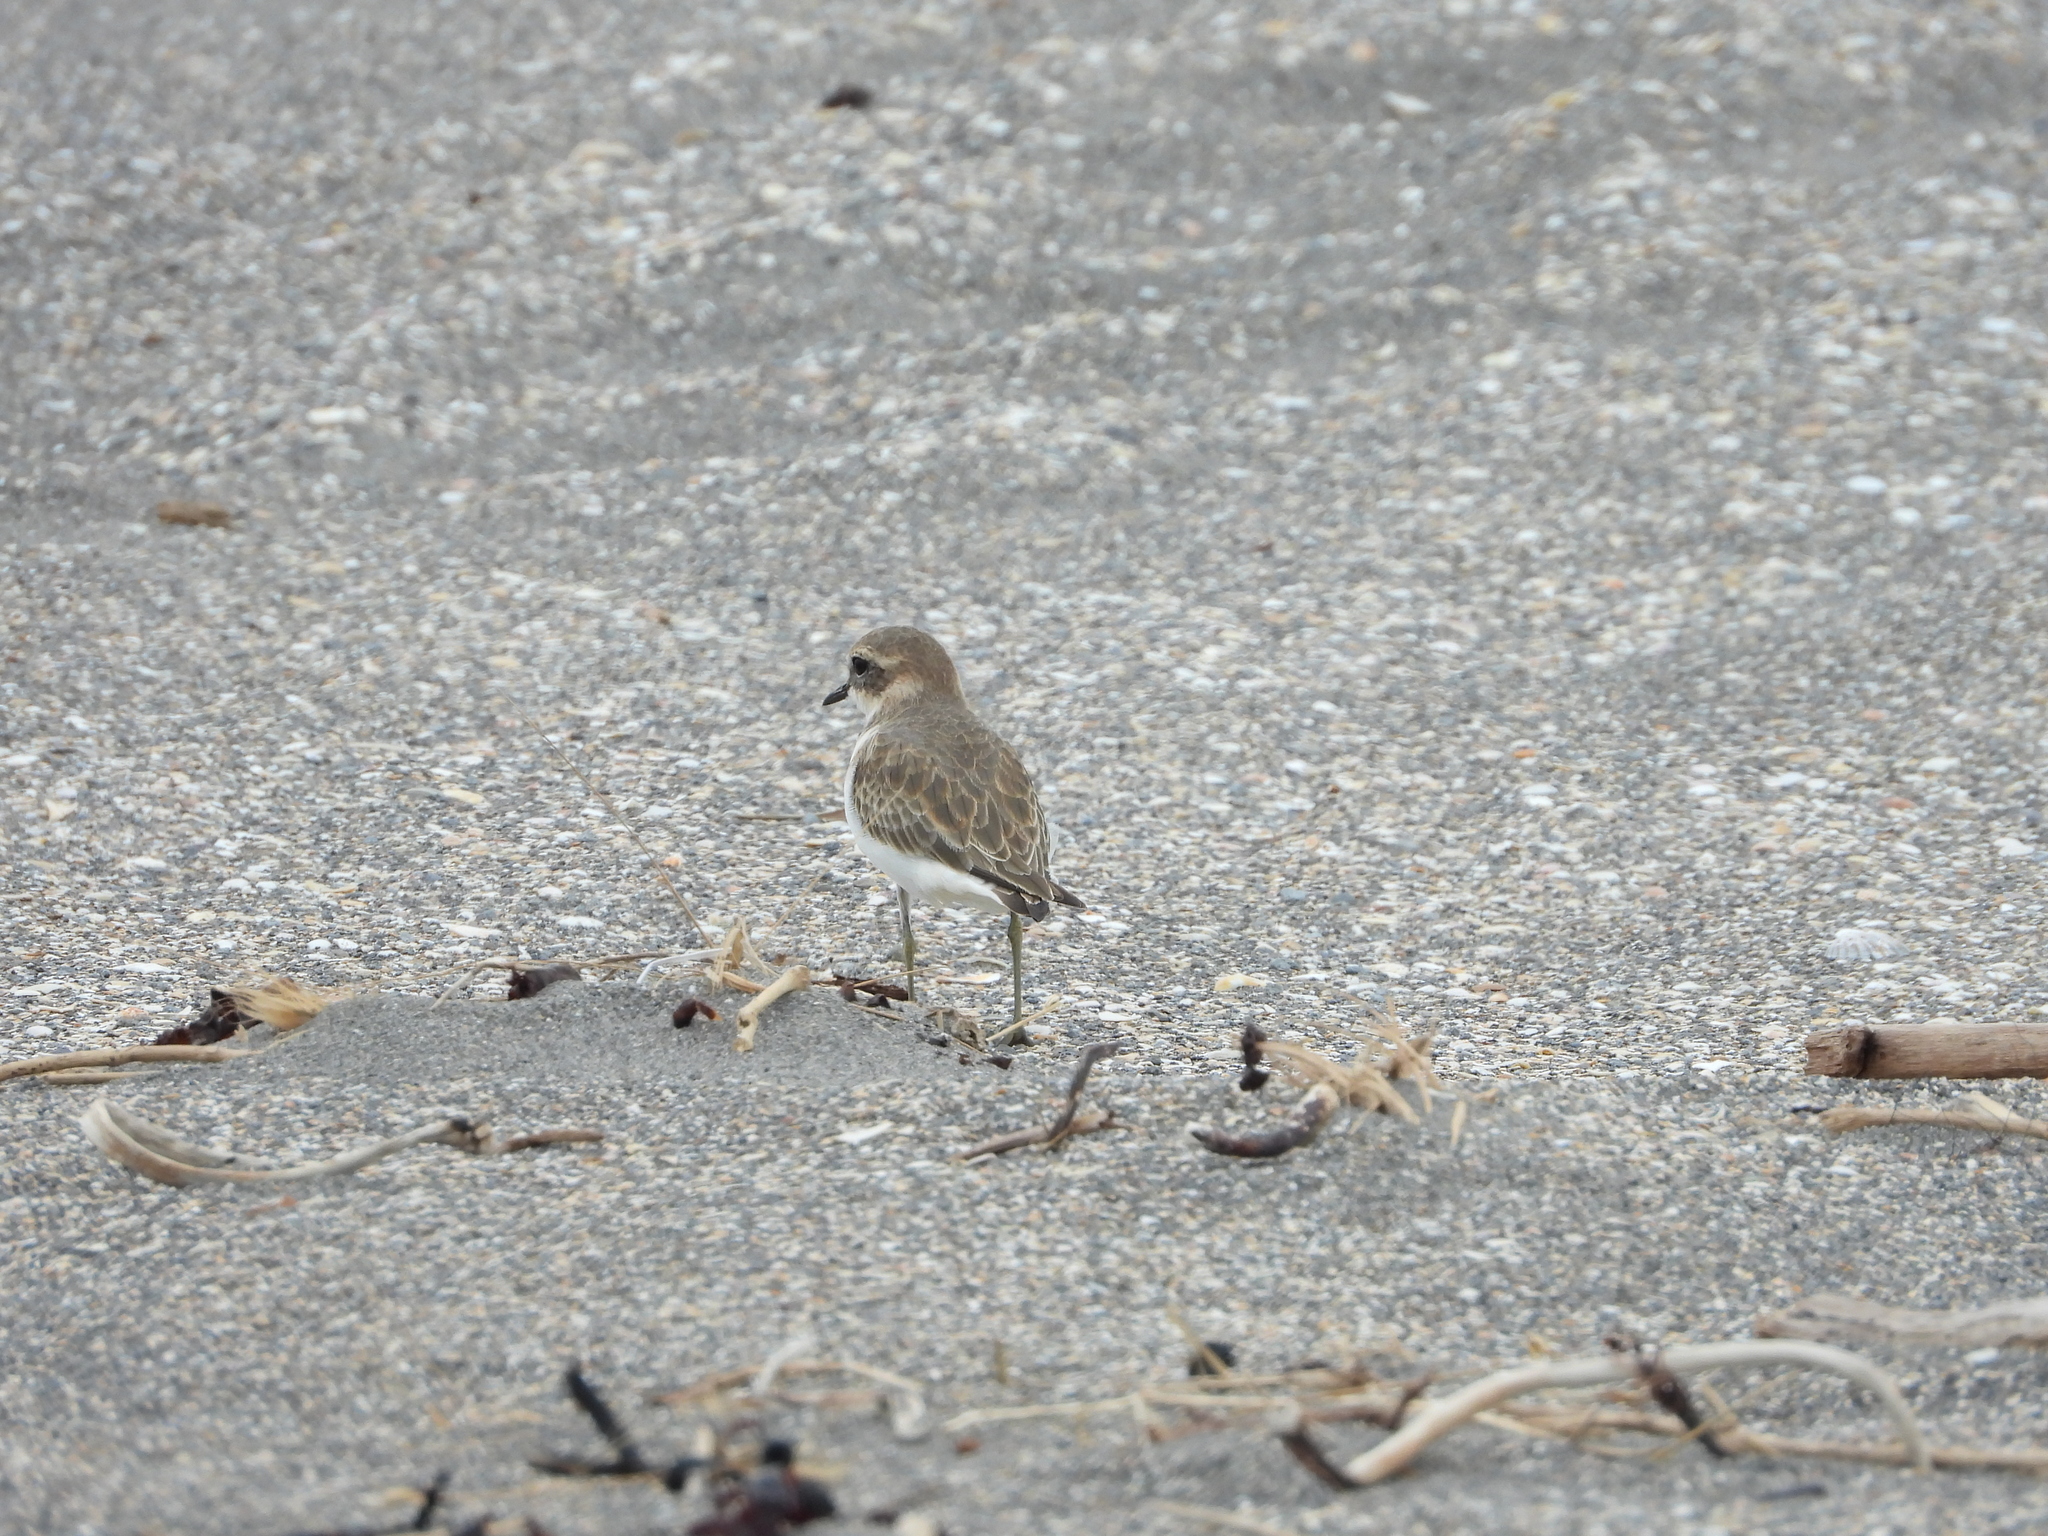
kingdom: Animalia
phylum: Chordata
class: Aves
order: Charadriiformes
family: Charadriidae
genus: Anarhynchus
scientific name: Anarhynchus
